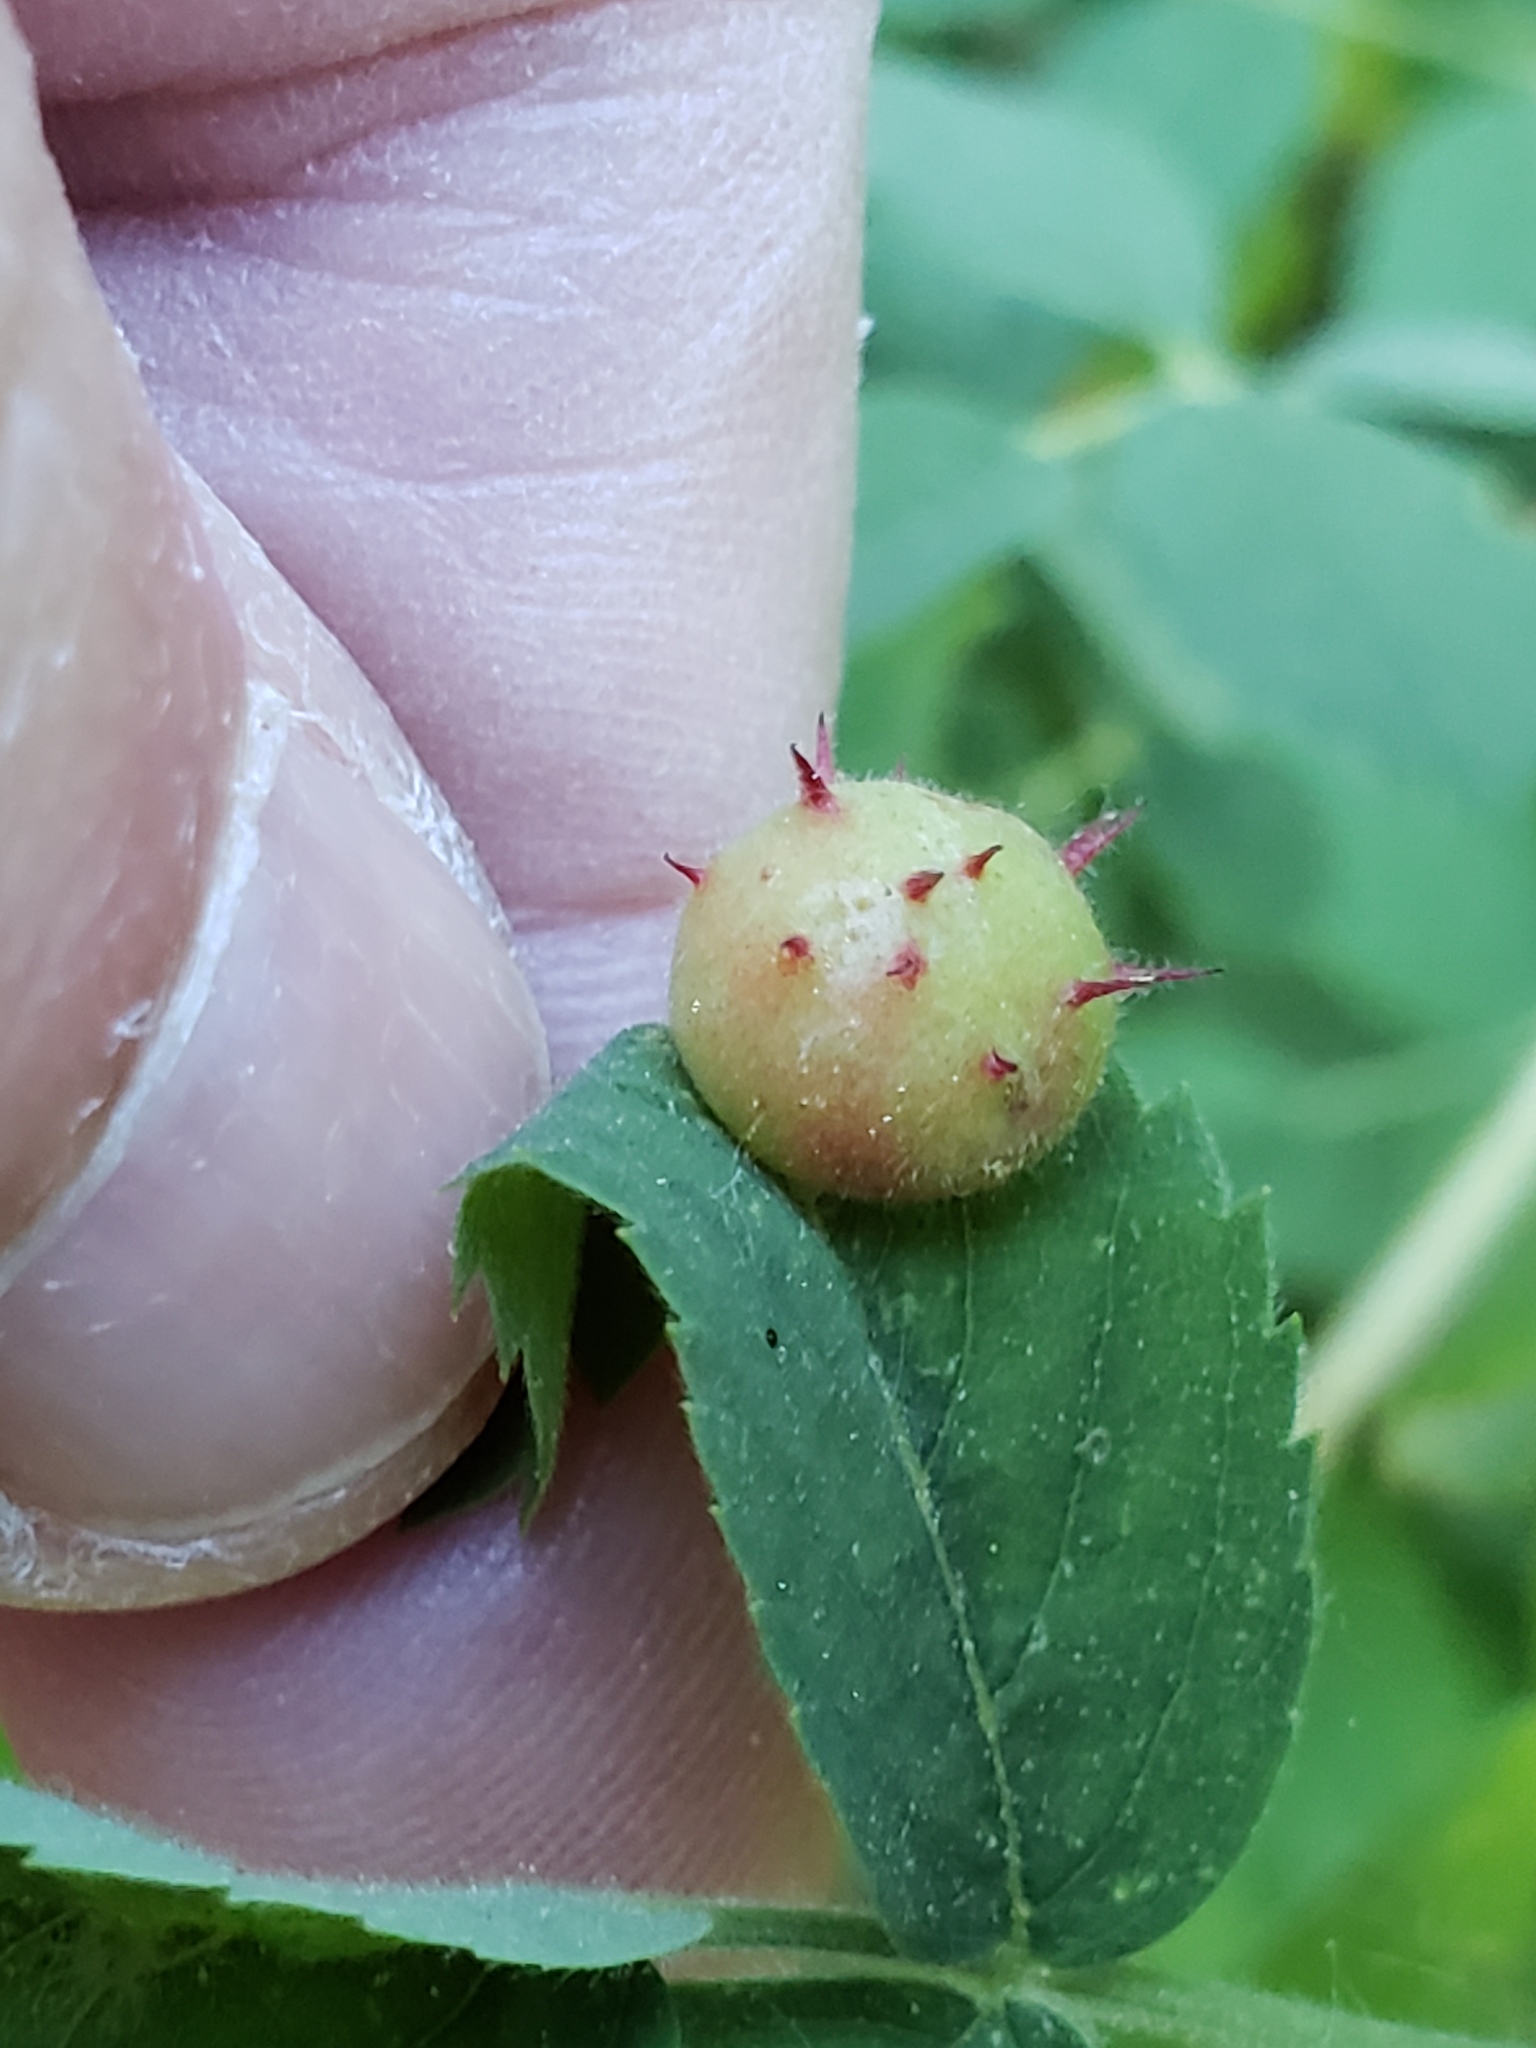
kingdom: Animalia
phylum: Arthropoda
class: Insecta
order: Hymenoptera
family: Cynipidae
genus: Diplolepis
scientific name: Diplolepis polita
